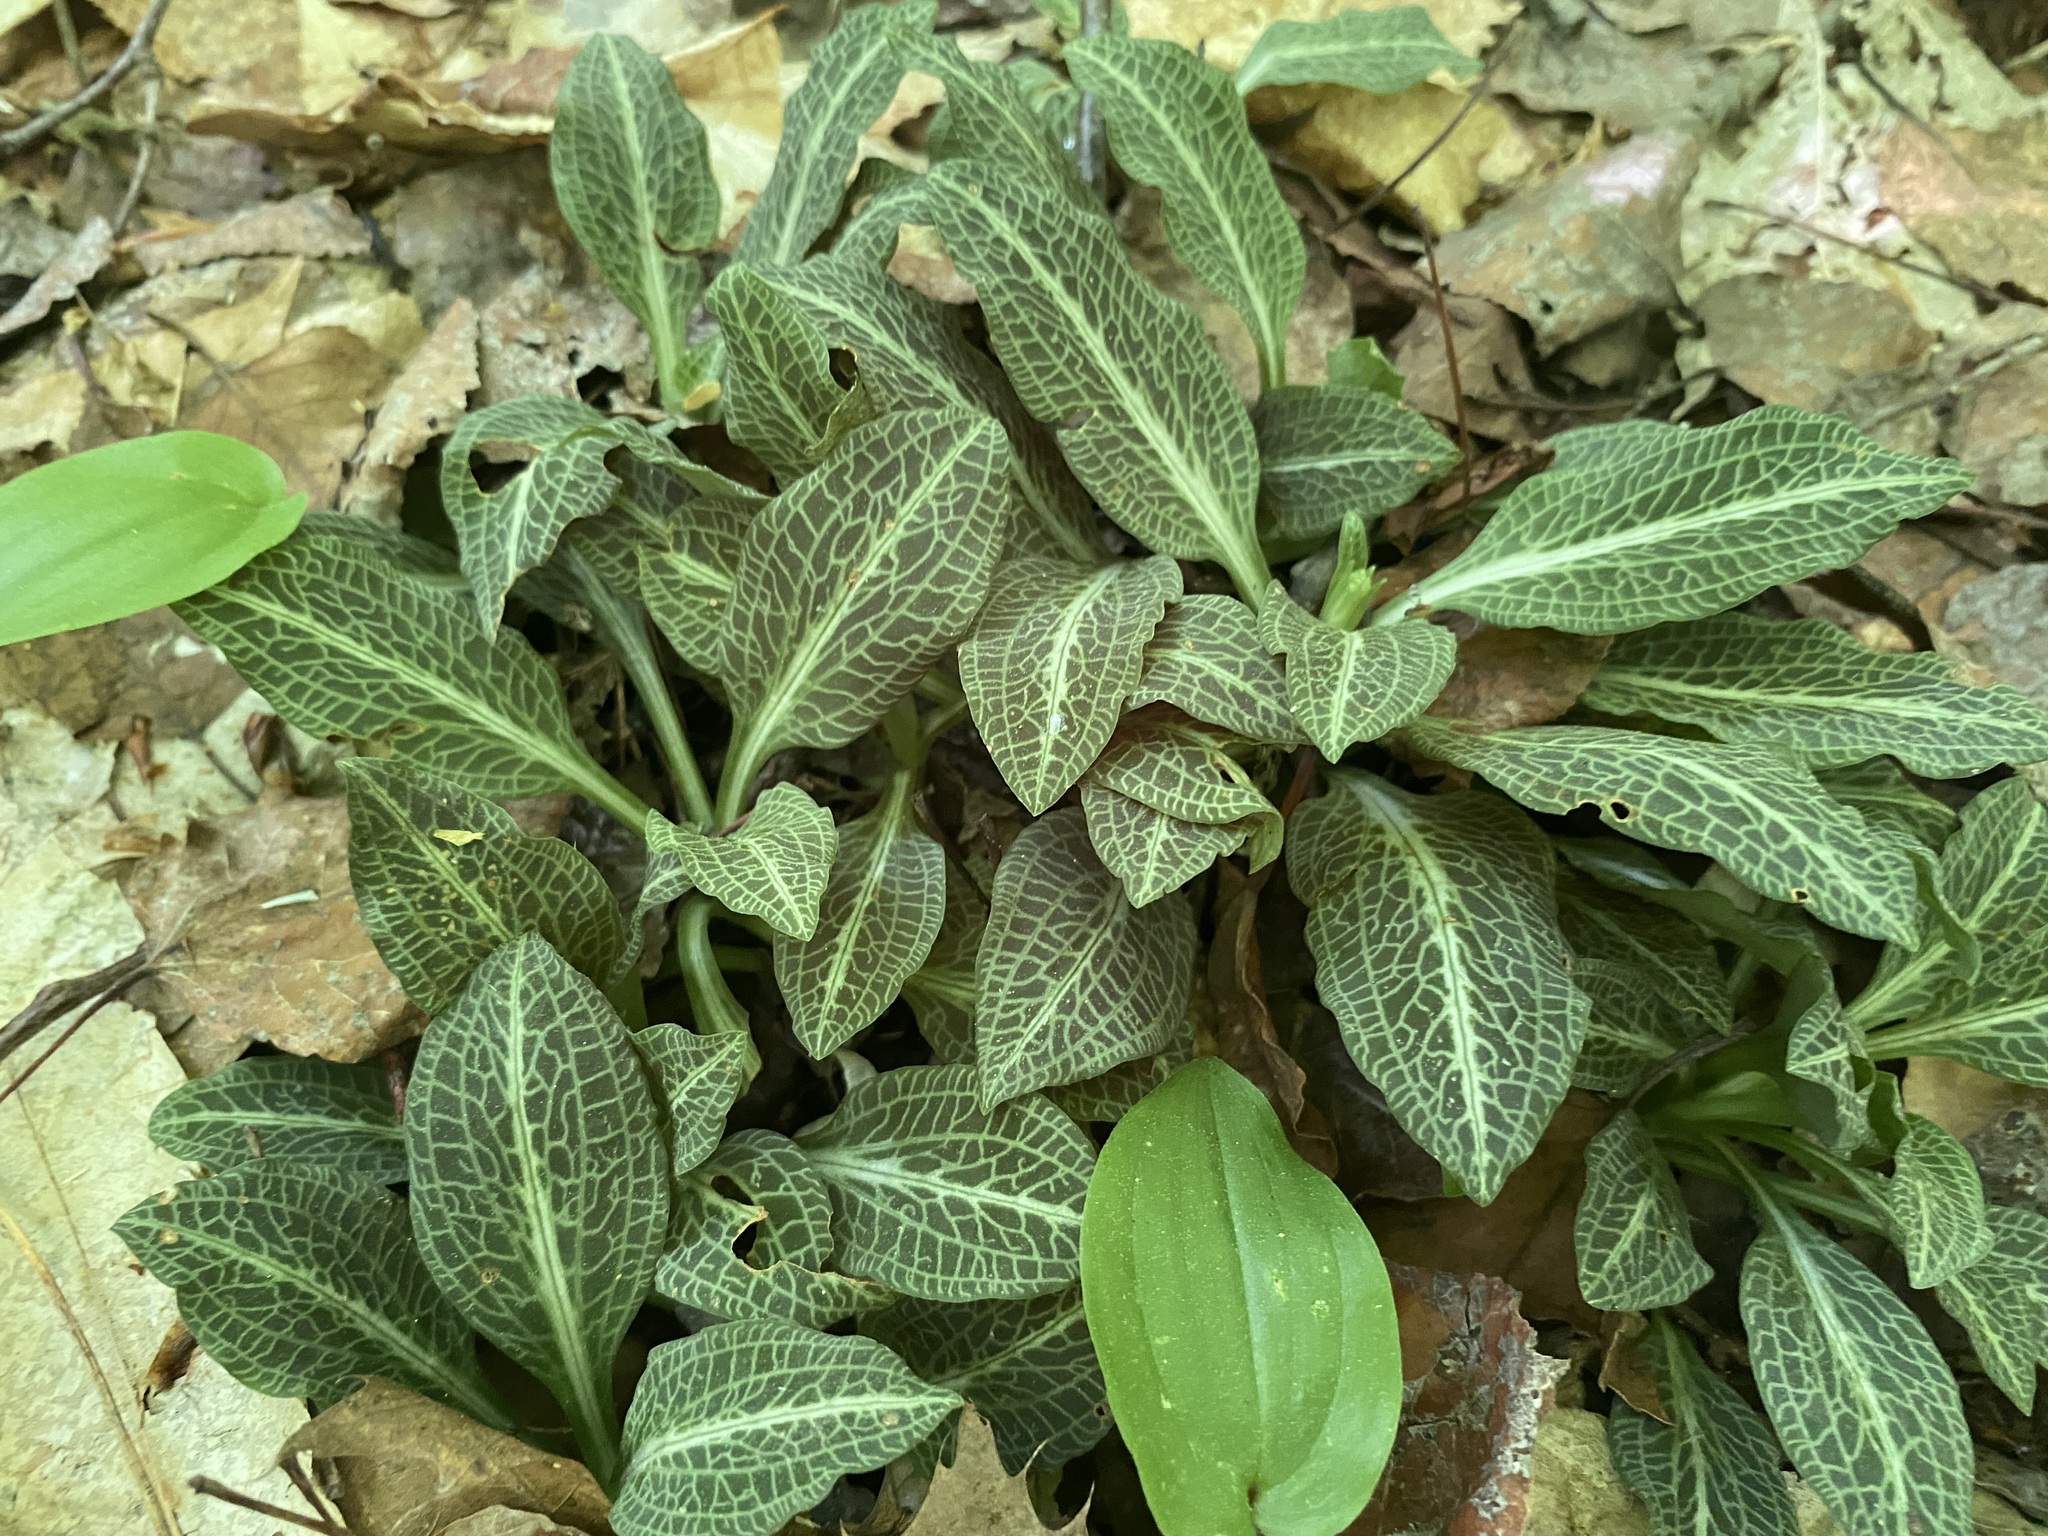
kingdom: Plantae
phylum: Tracheophyta
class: Liliopsida
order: Asparagales
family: Orchidaceae
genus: Goodyera
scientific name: Goodyera pubescens
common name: Downy rattlesnake-plantain
